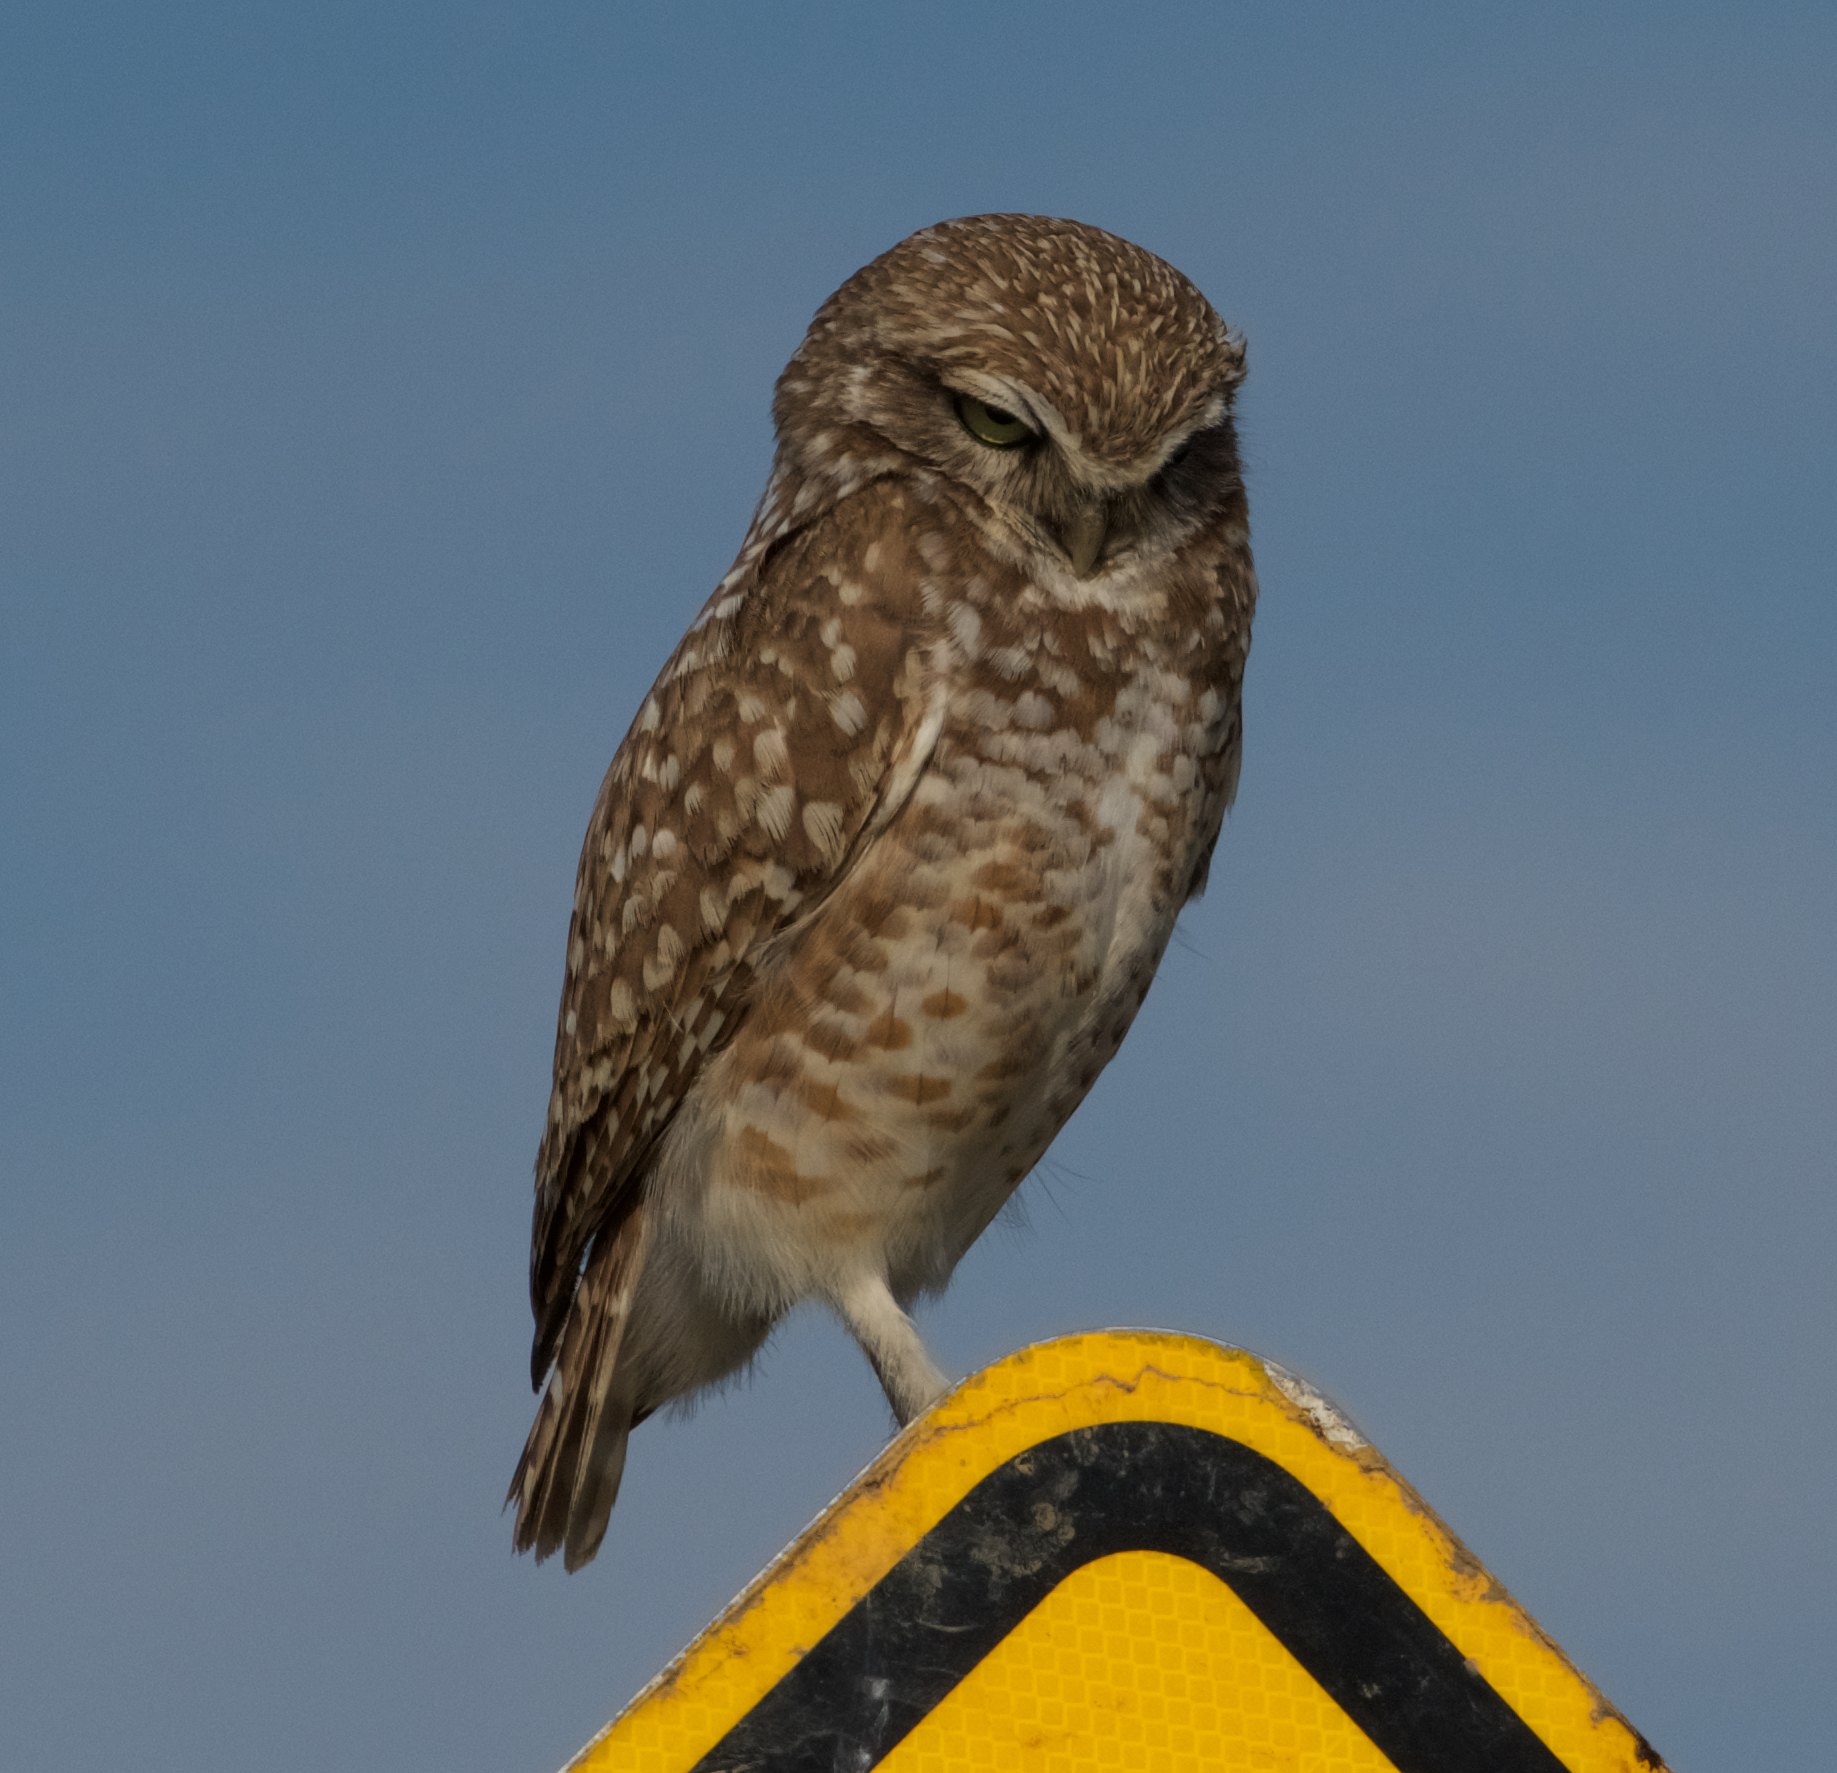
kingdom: Animalia
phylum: Chordata
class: Aves
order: Strigiformes
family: Strigidae
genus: Athene
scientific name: Athene cunicularia
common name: Burrowing owl
